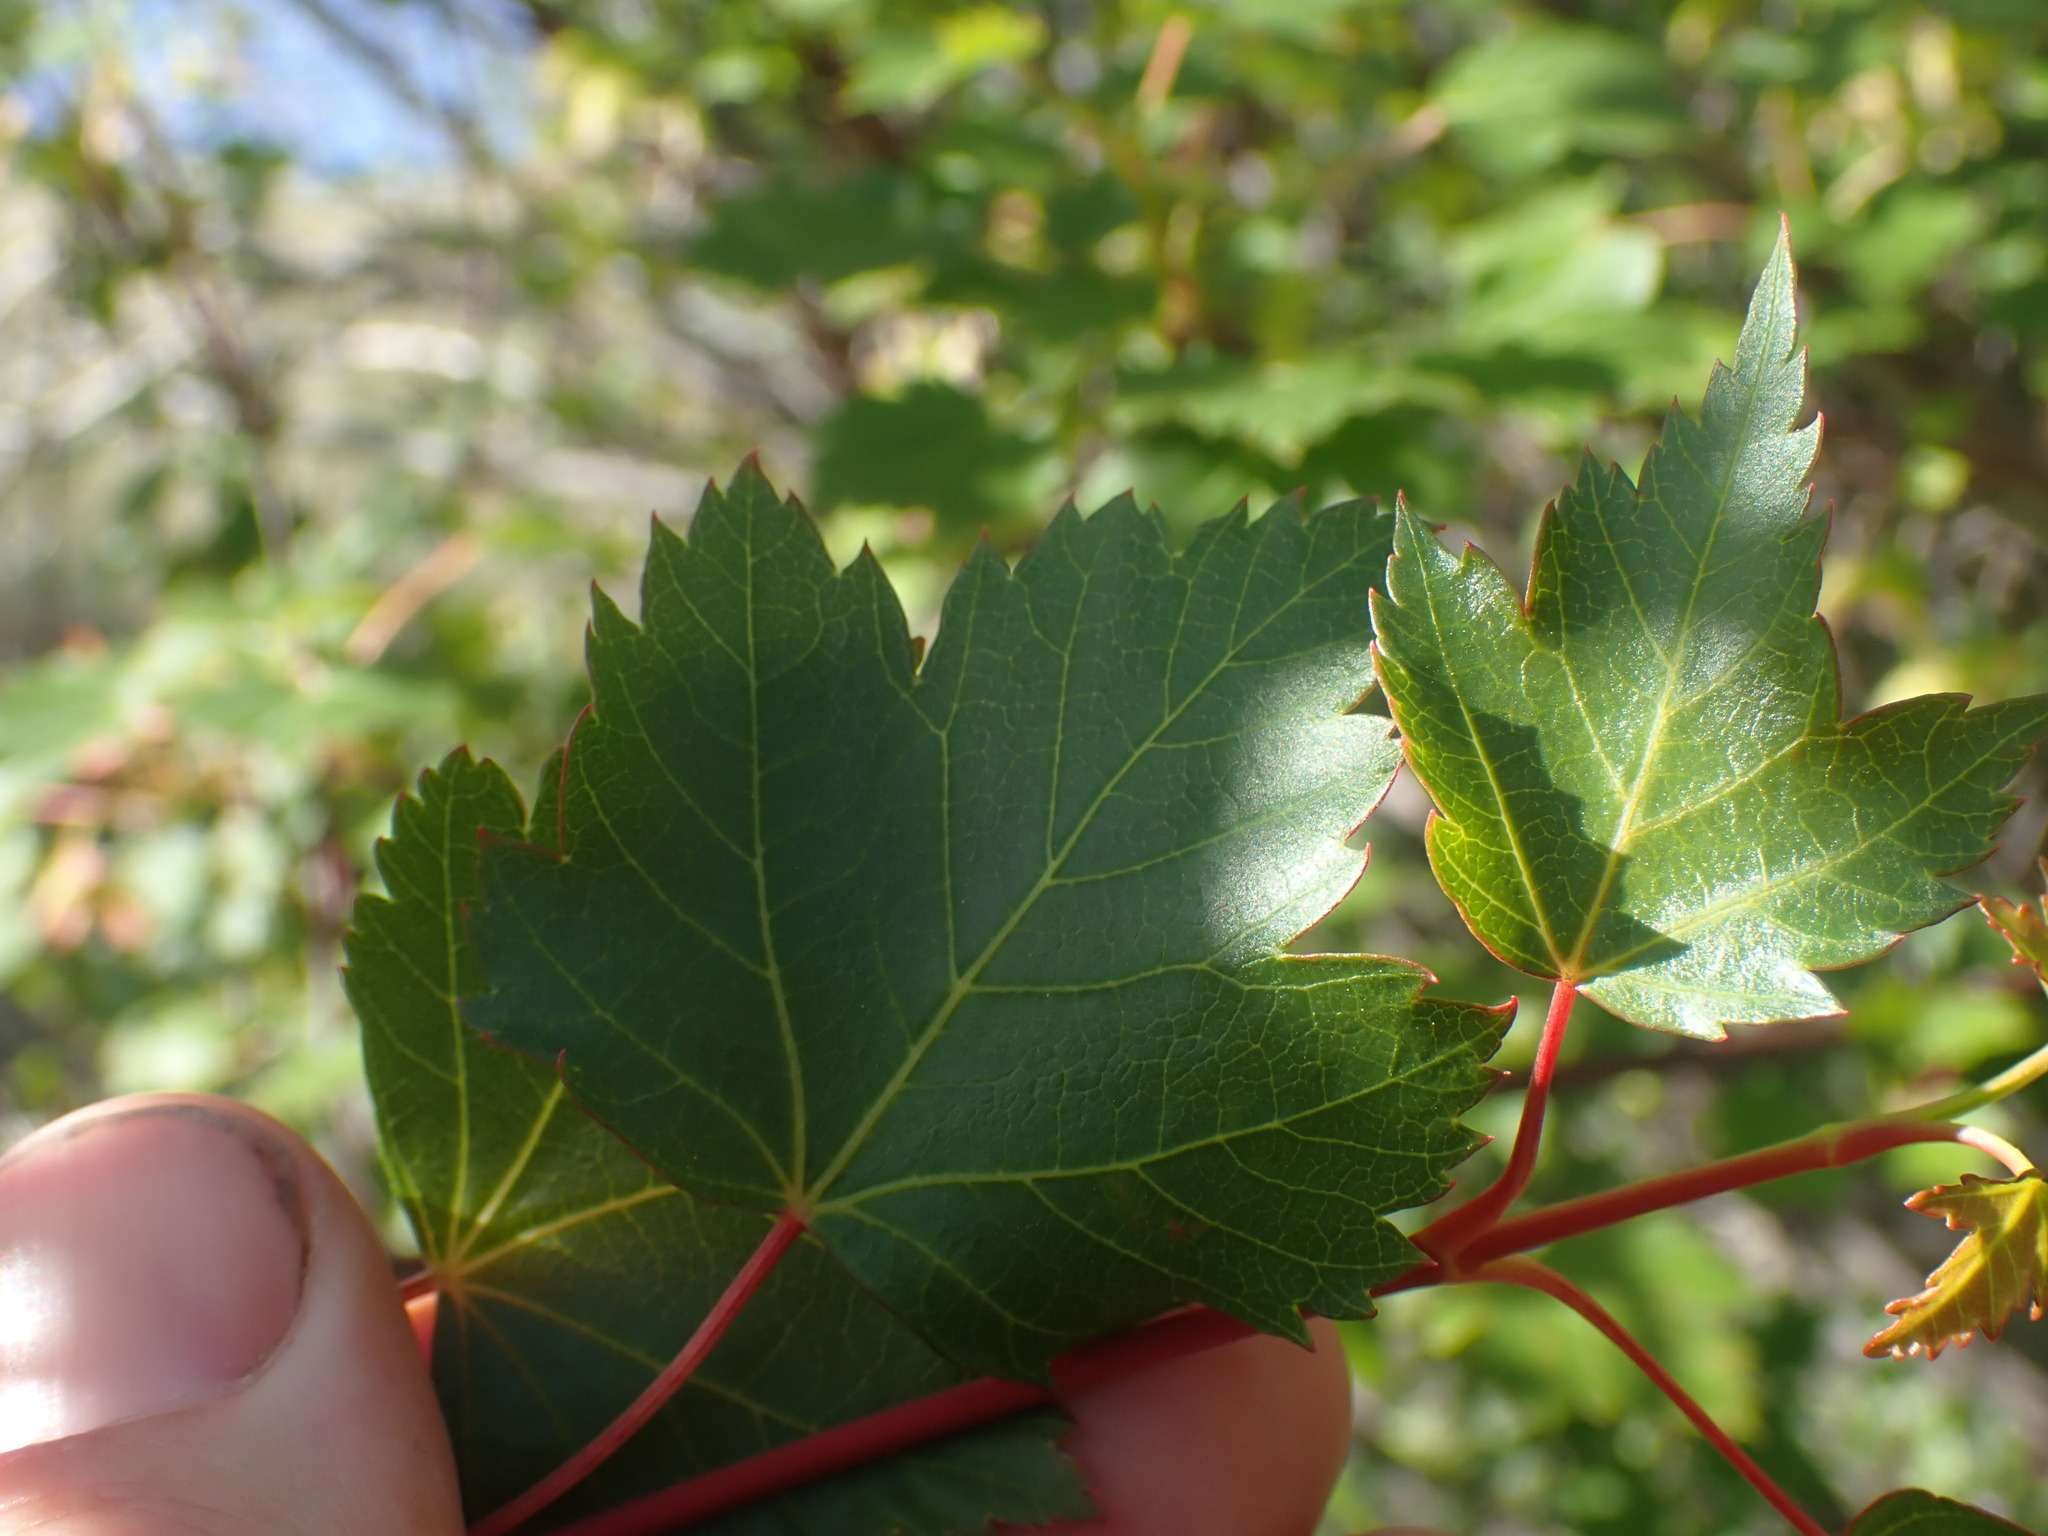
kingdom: Plantae
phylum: Tracheophyta
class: Magnoliopsida
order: Sapindales
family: Sapindaceae
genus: Acer
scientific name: Acer glabrum
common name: Rocky mountain maple
